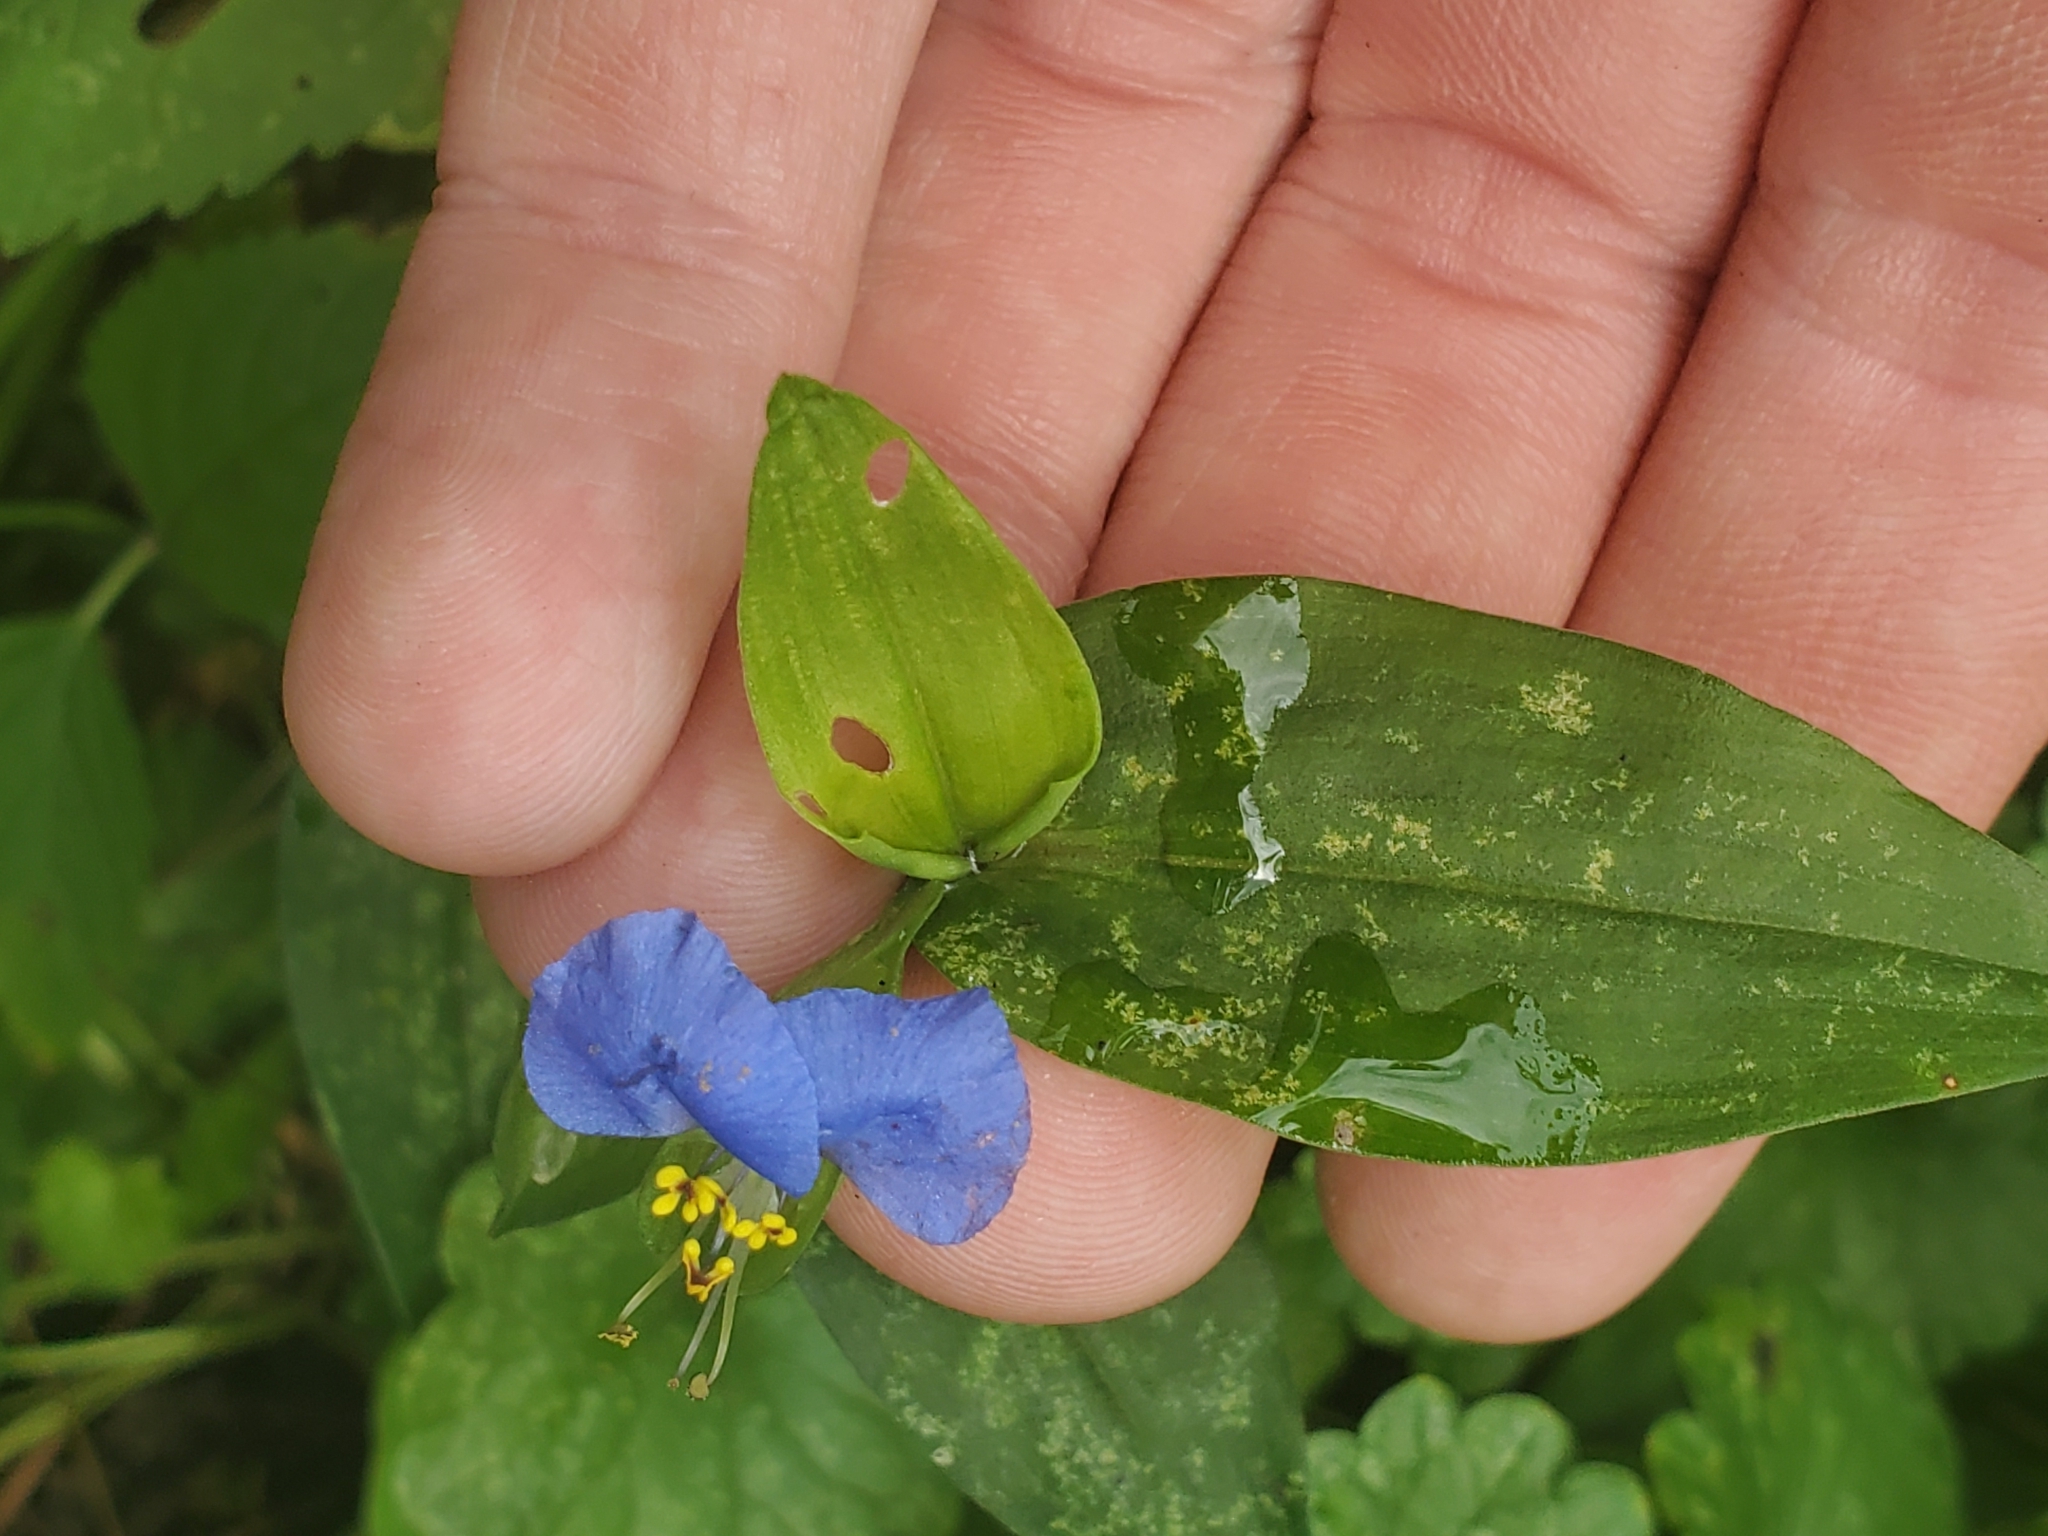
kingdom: Plantae
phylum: Tracheophyta
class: Liliopsida
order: Commelinales
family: Commelinaceae
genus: Commelina
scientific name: Commelina communis
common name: Asiatic dayflower
